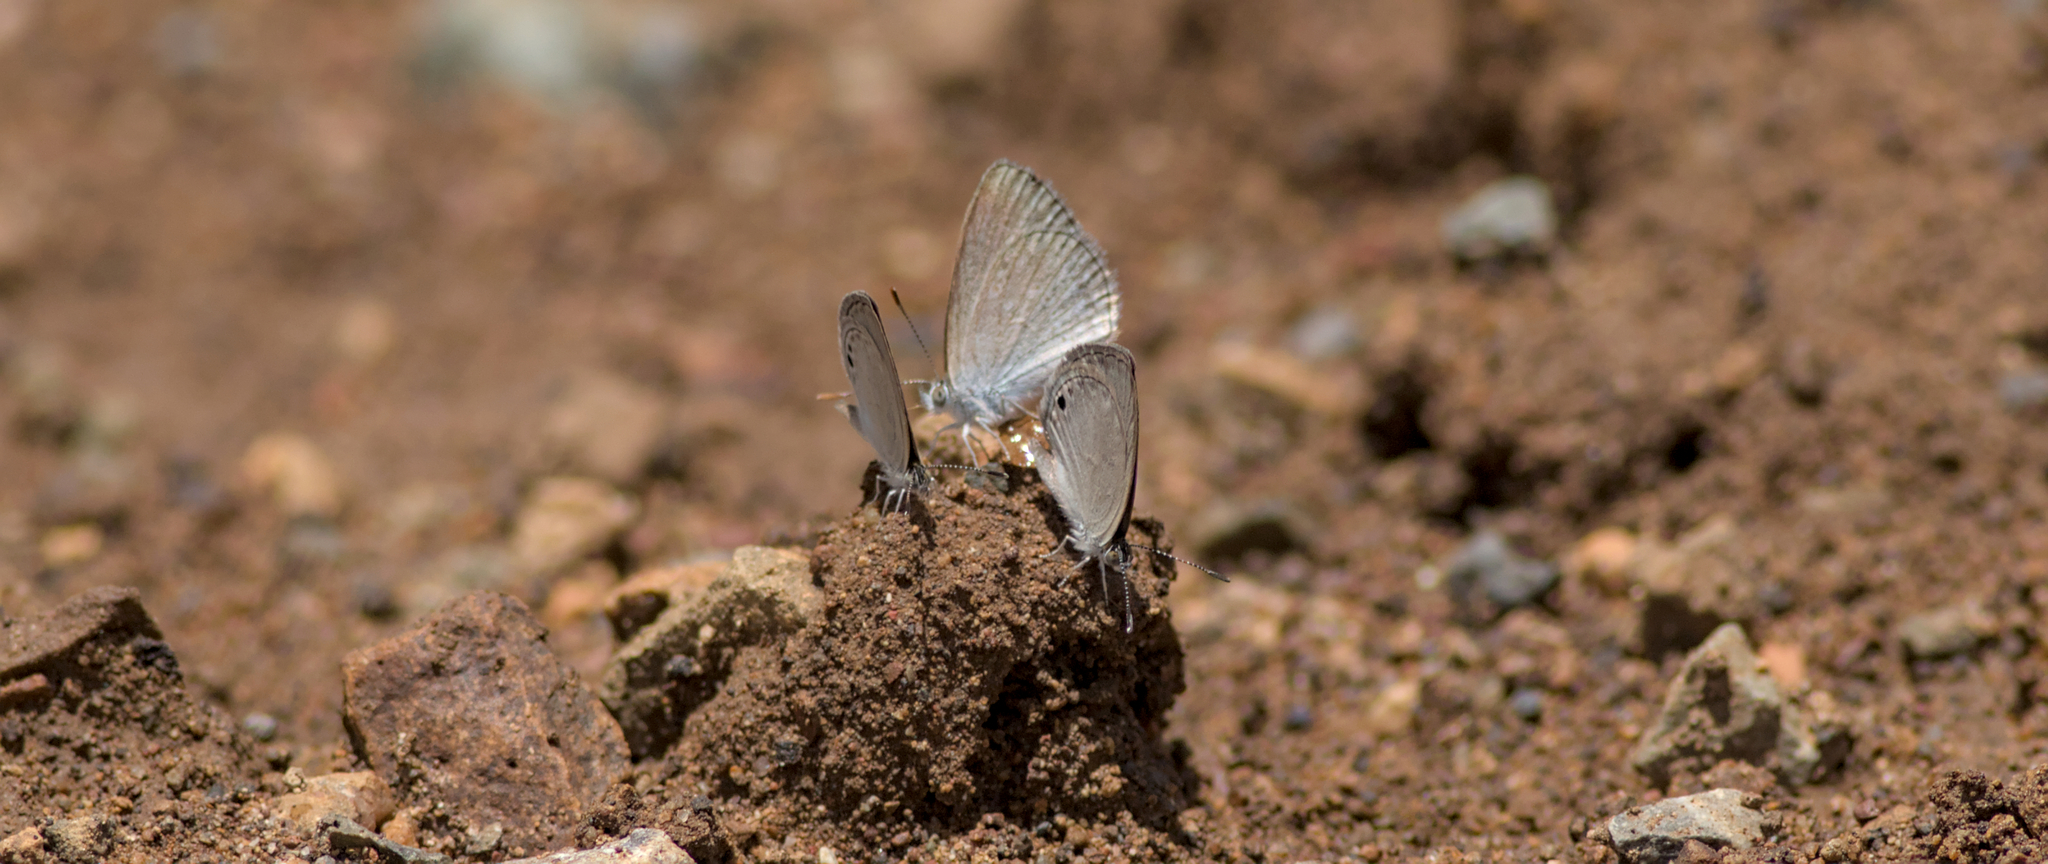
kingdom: Animalia
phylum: Arthropoda
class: Insecta
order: Lepidoptera
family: Lycaenidae
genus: Zizina
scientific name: Zizina labradus
